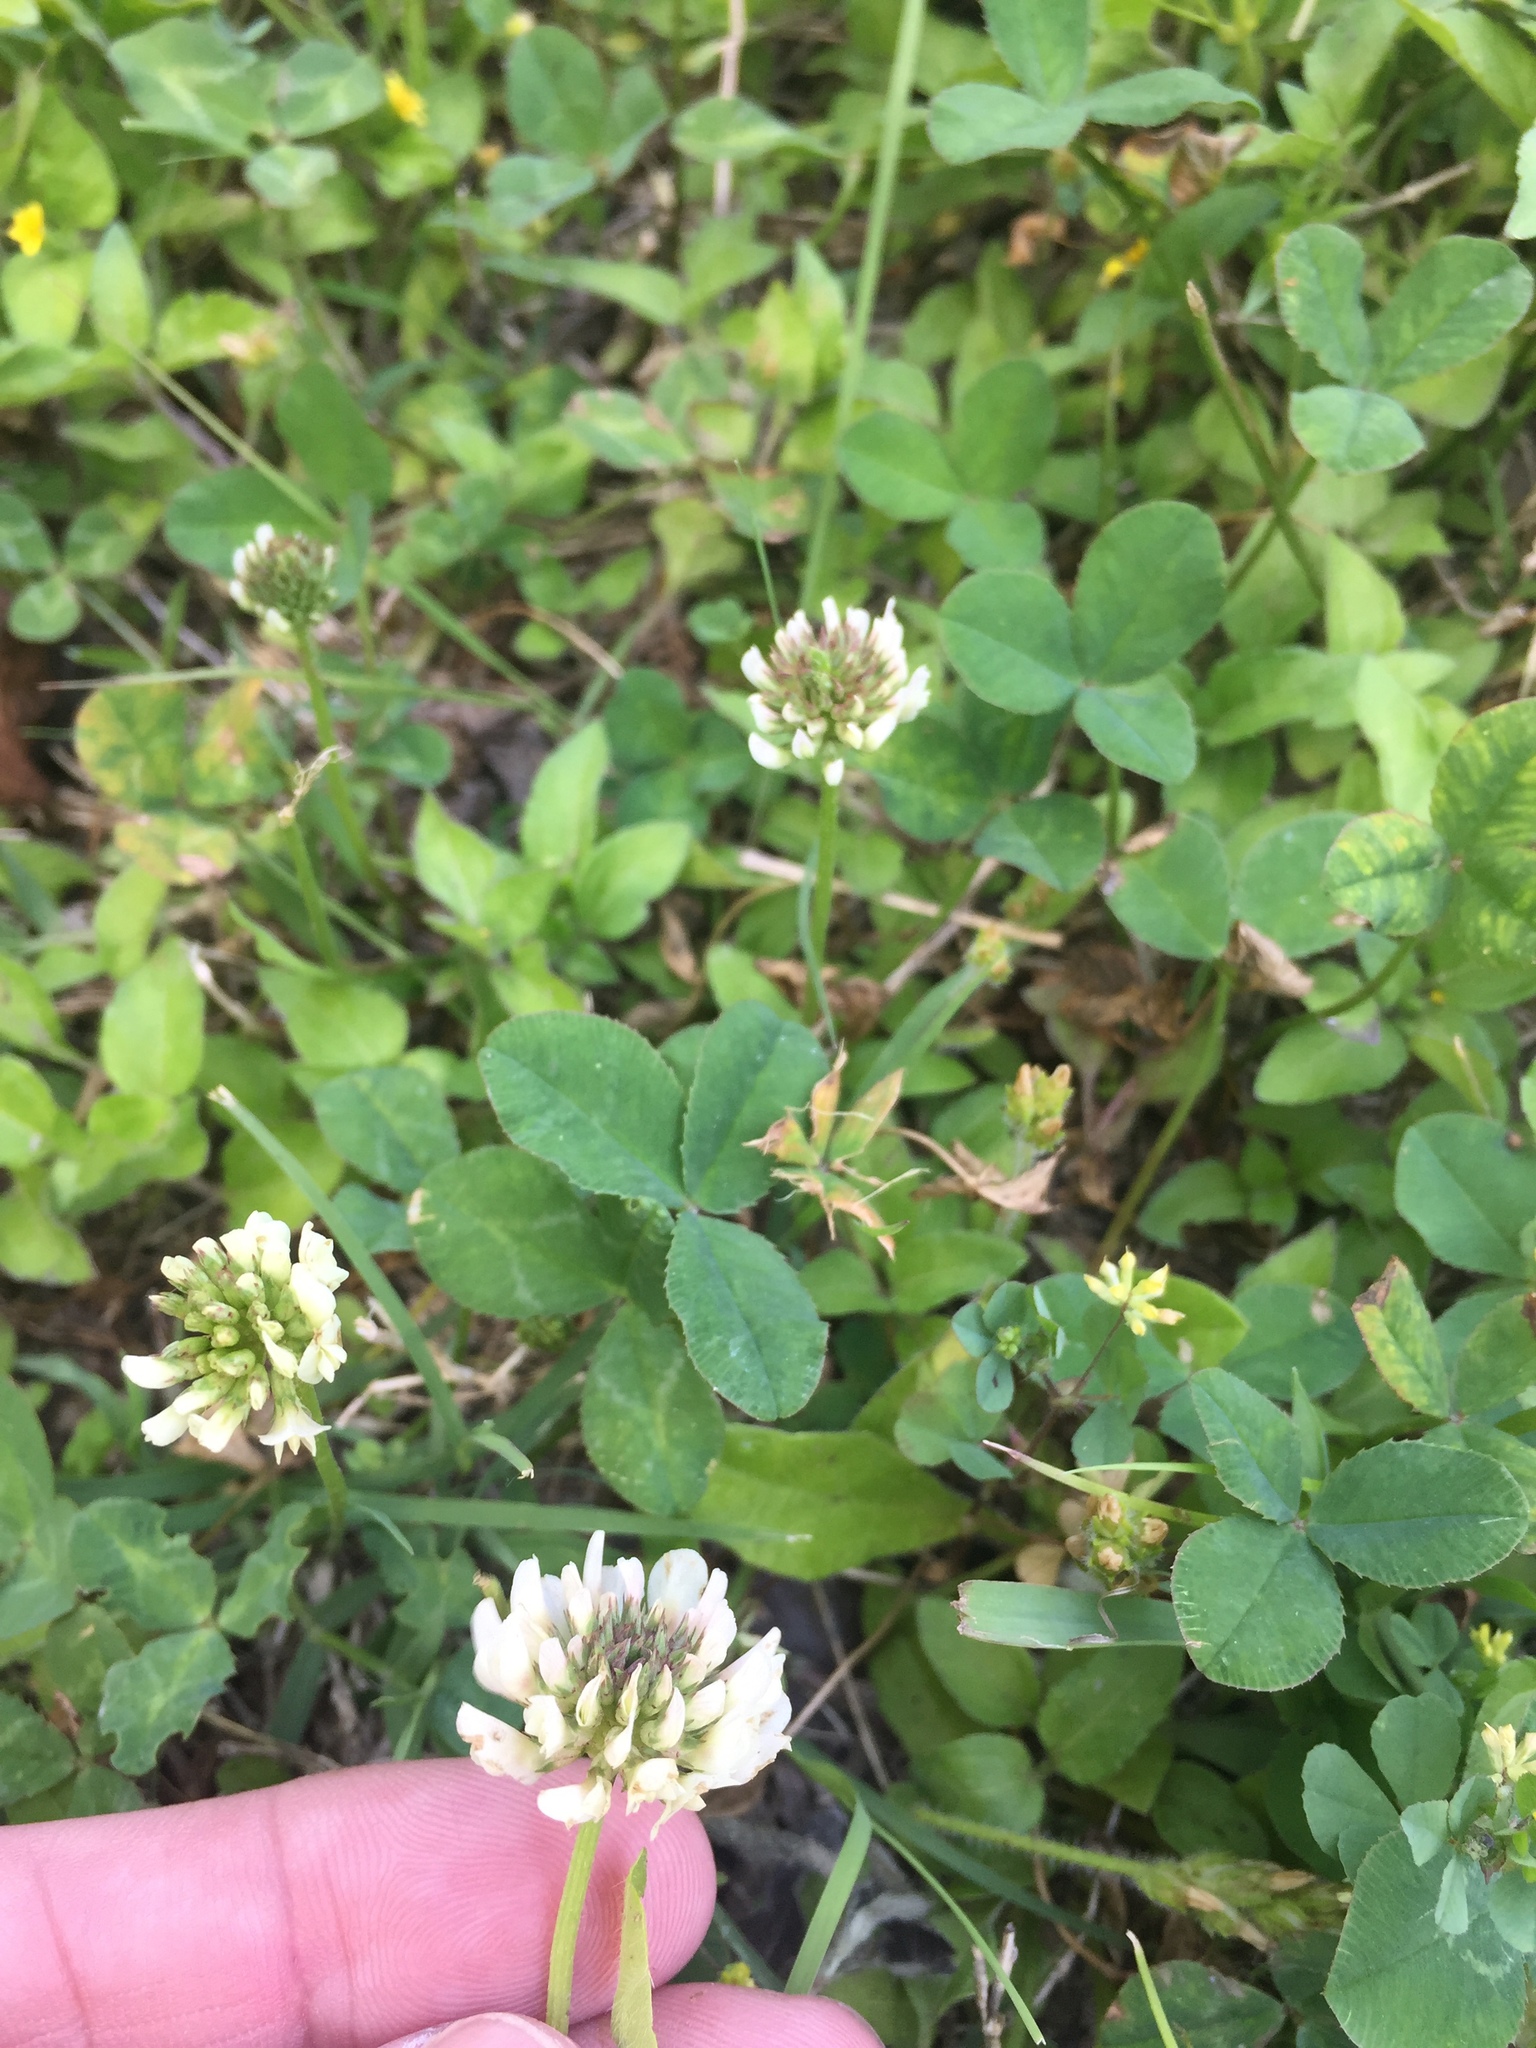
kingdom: Plantae
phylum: Tracheophyta
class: Magnoliopsida
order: Fabales
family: Fabaceae
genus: Trifolium
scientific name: Trifolium repens
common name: White clover
